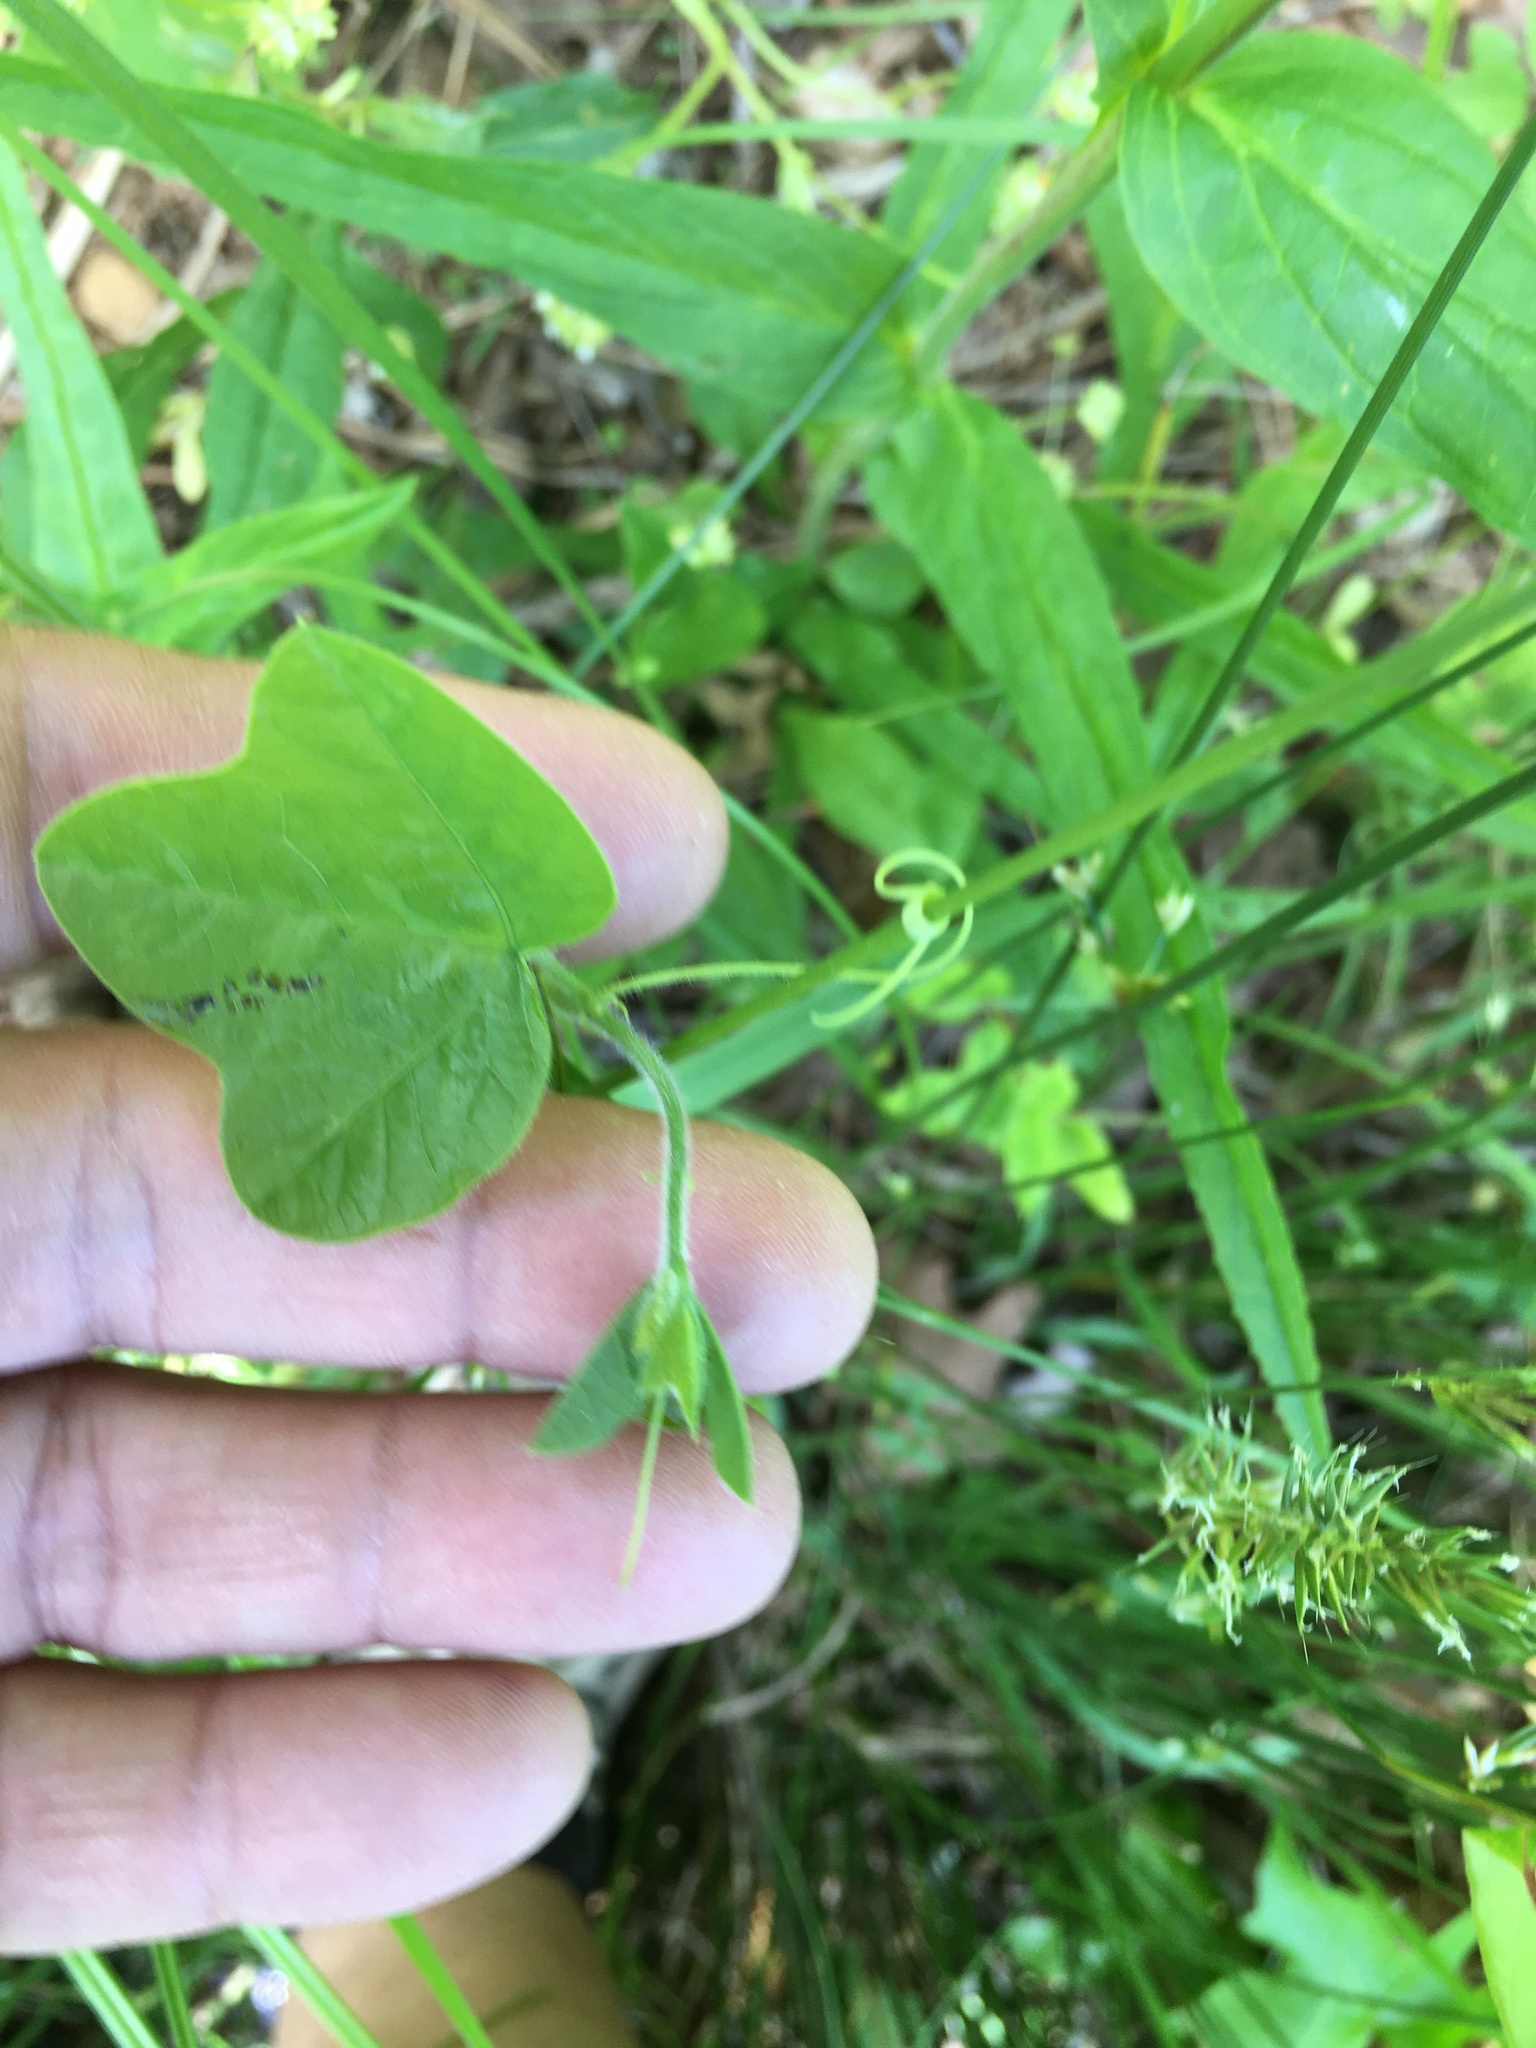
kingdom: Plantae
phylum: Tracheophyta
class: Magnoliopsida
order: Malpighiales
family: Passifloraceae
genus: Passiflora
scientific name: Passiflora lutea
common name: Yellow passionflower
